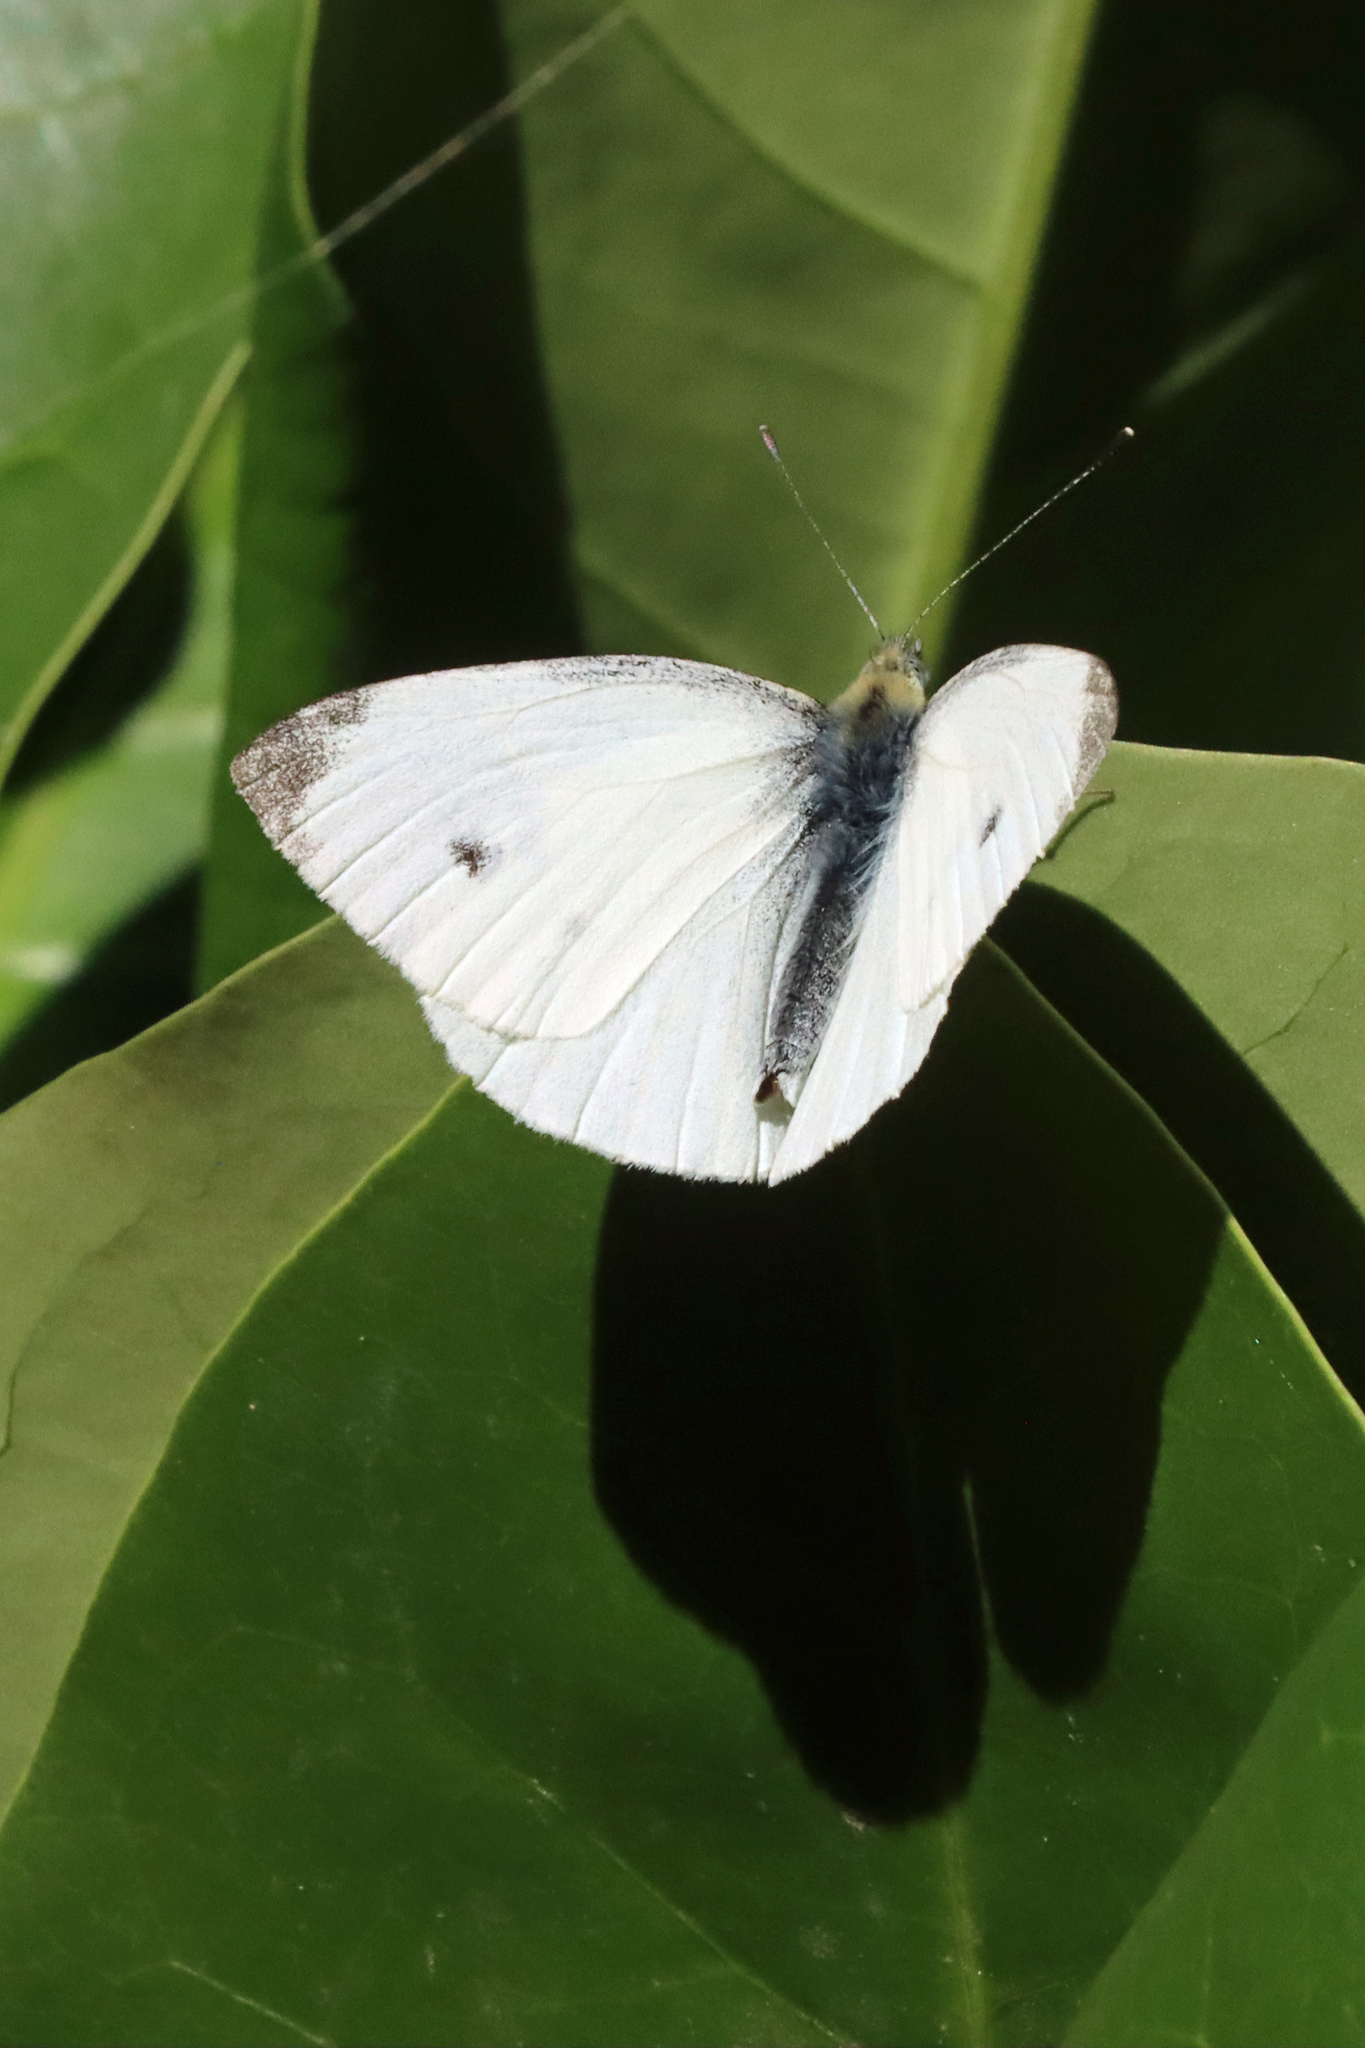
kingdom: Animalia
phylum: Arthropoda
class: Insecta
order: Lepidoptera
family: Pieridae
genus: Pieris
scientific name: Pieris rapae
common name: Small white
